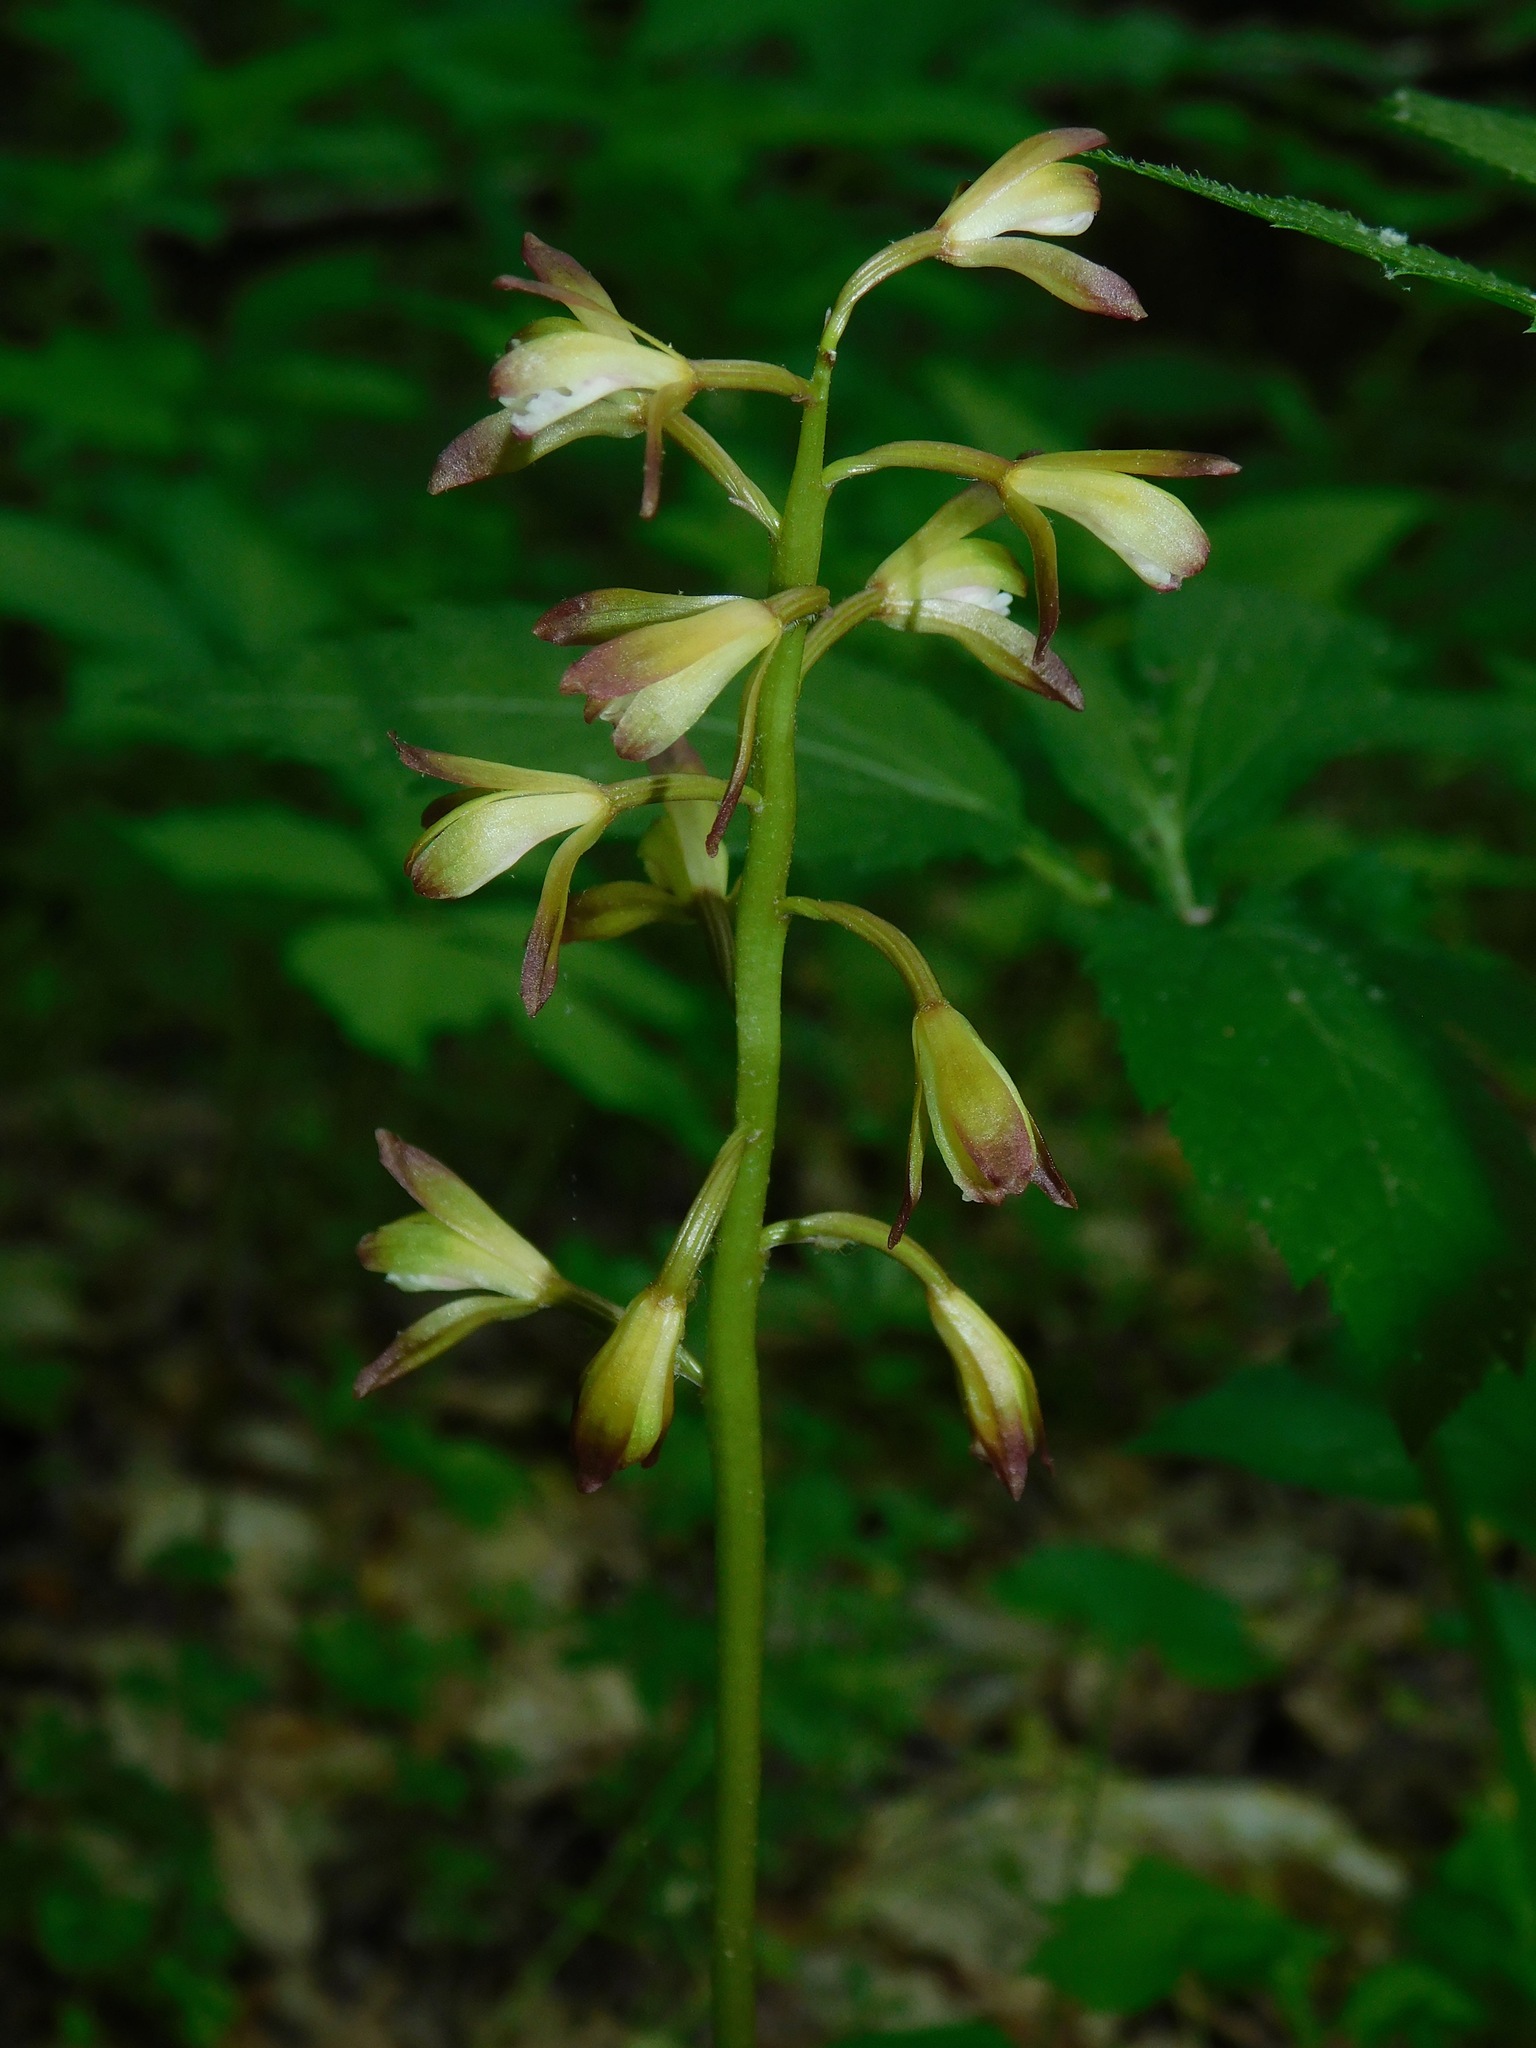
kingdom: Plantae
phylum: Tracheophyta
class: Liliopsida
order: Asparagales
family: Orchidaceae
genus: Aplectrum
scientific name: Aplectrum hyemale
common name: Adam-and-eve
